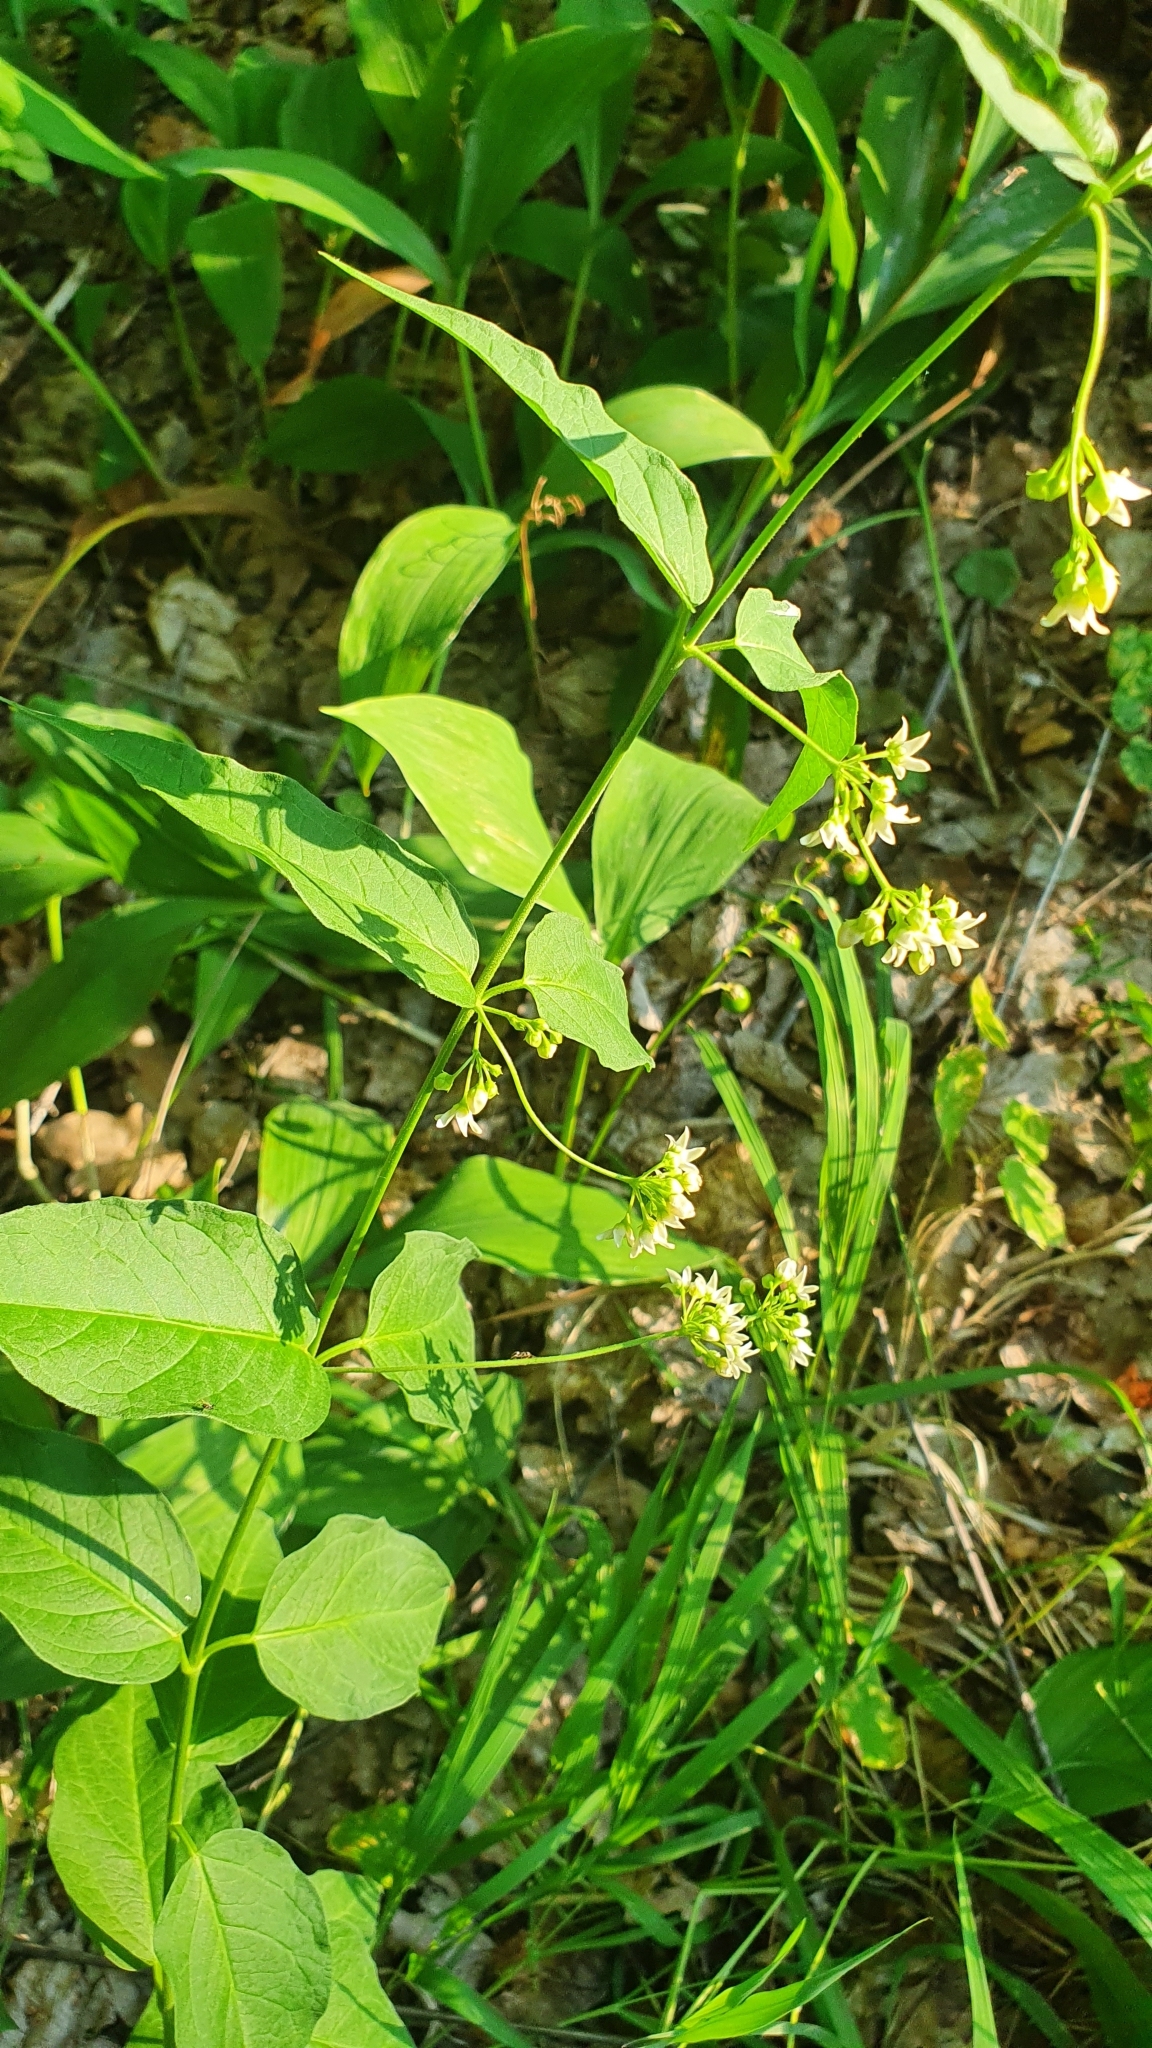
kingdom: Plantae
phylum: Tracheophyta
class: Magnoliopsida
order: Gentianales
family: Apocynaceae
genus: Vincetoxicum
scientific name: Vincetoxicum hirundinaria
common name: White swallowwort
